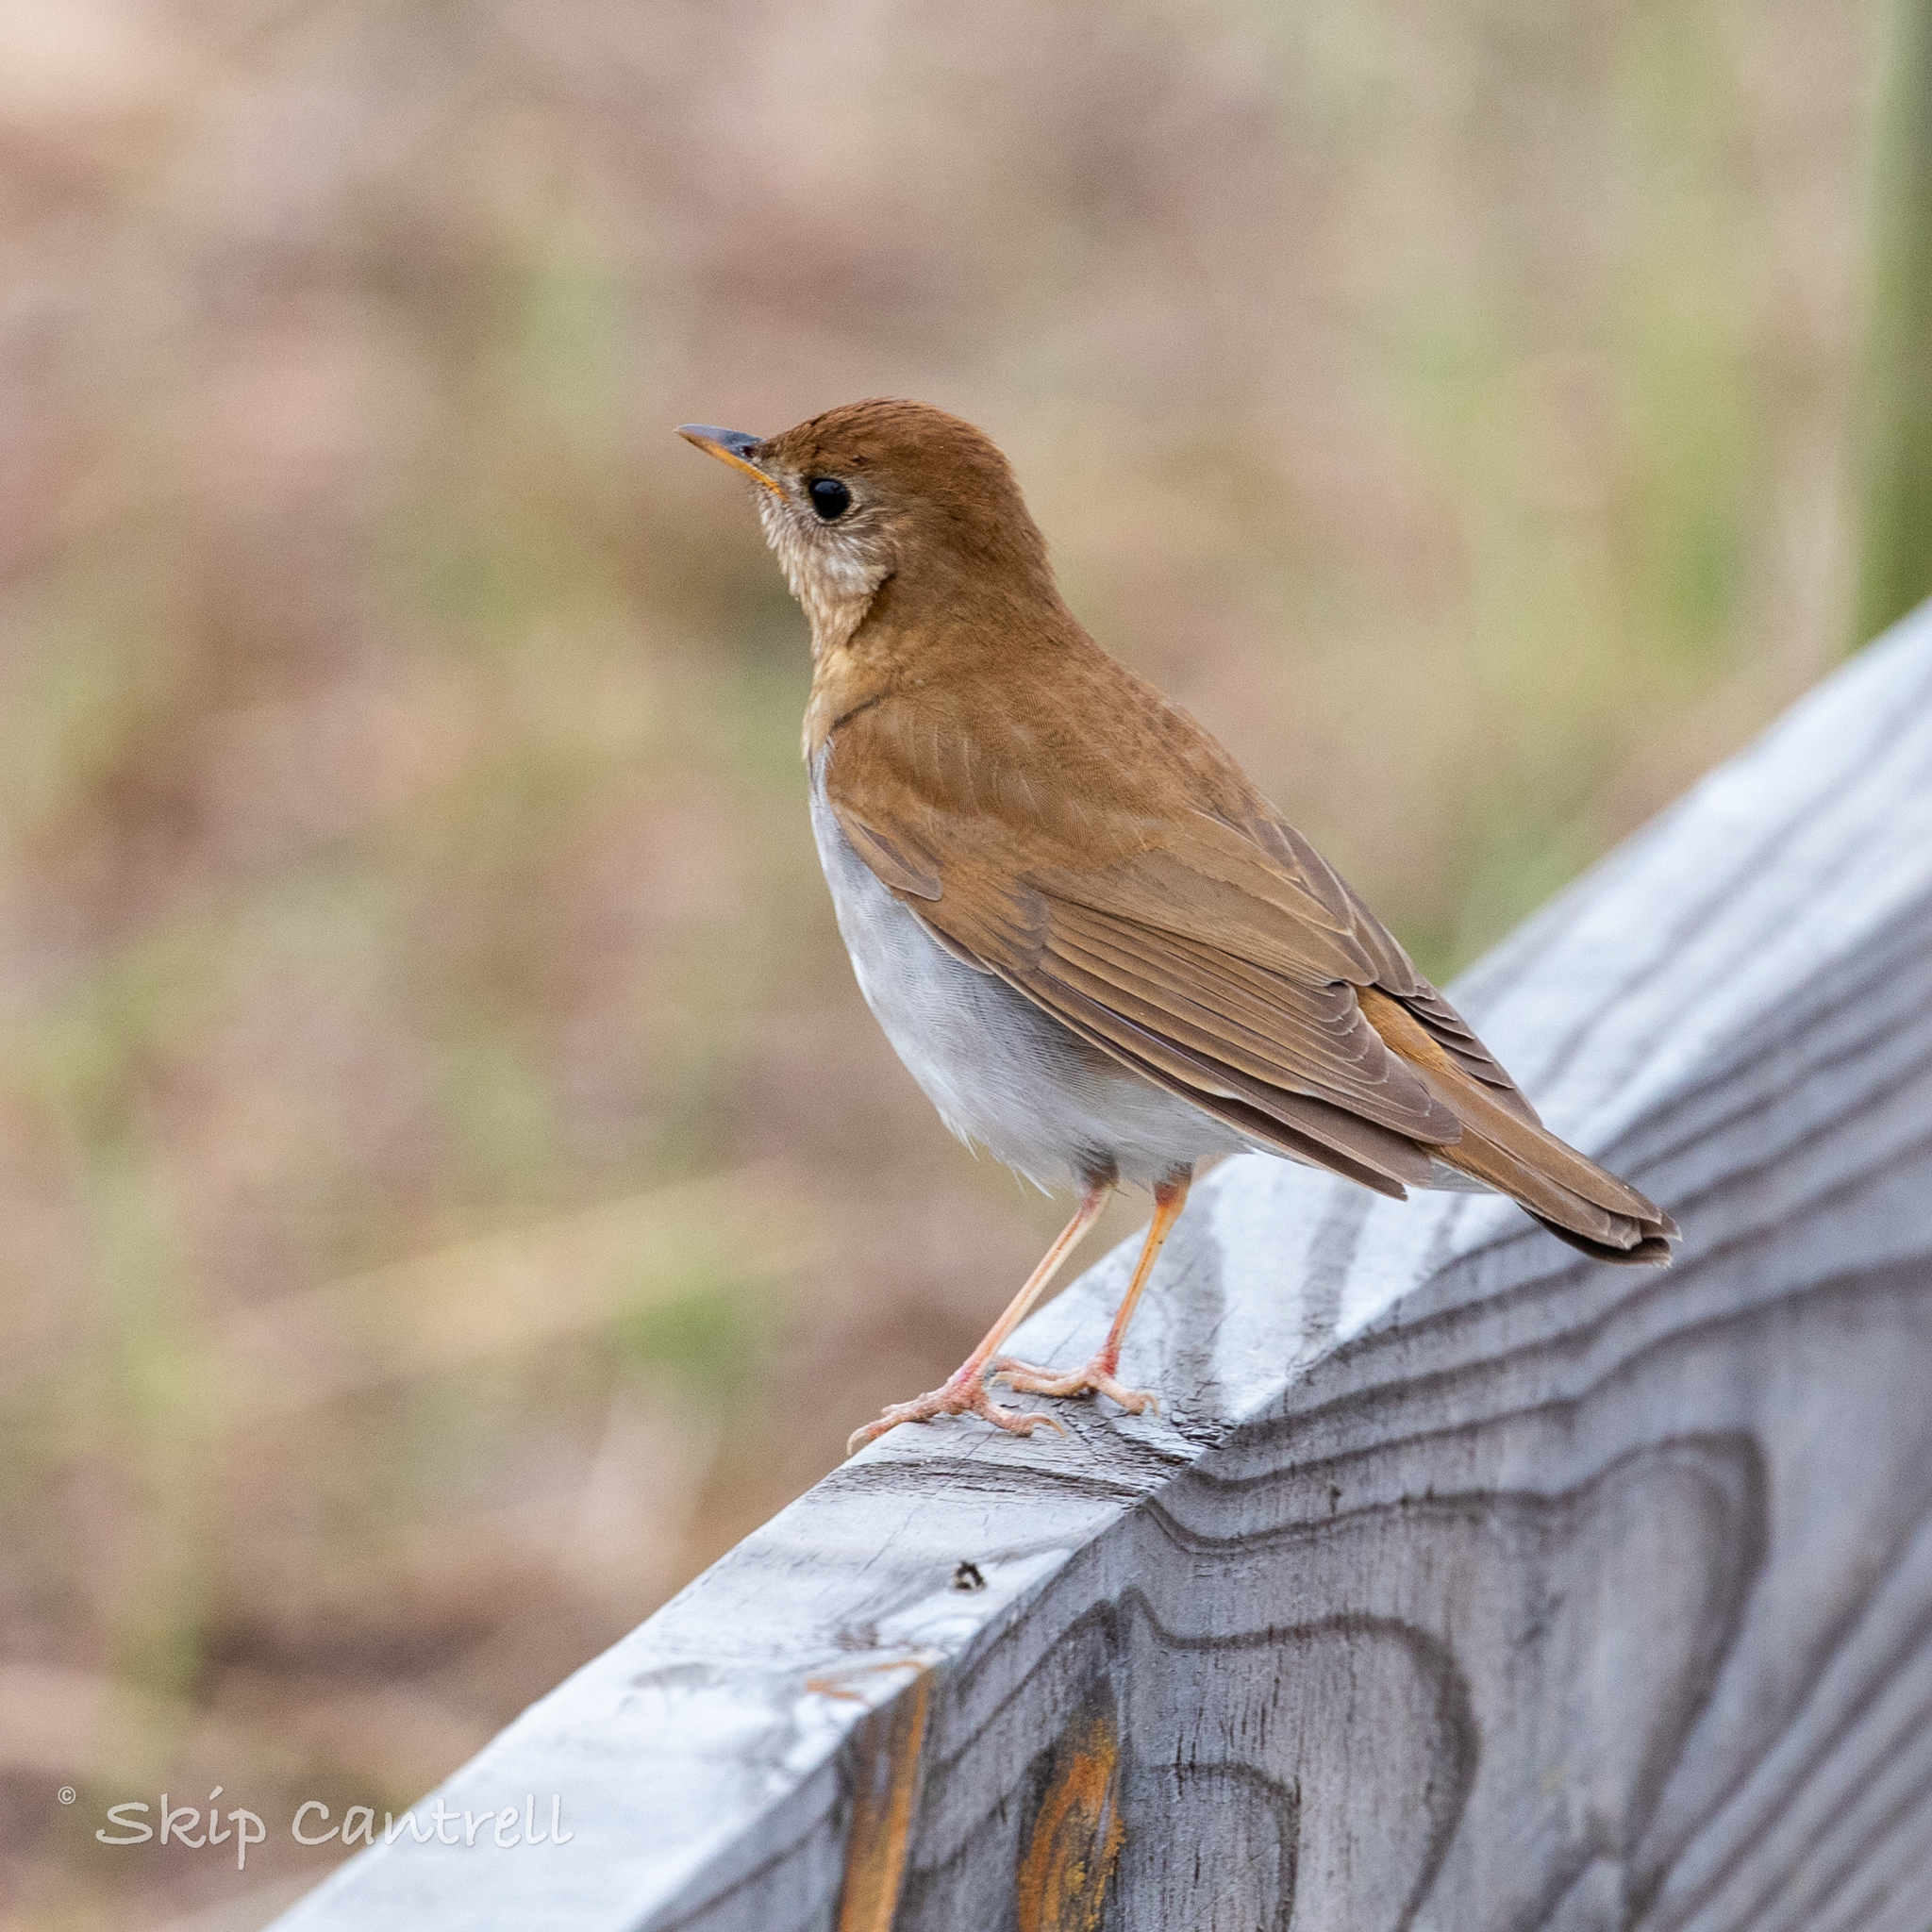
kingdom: Animalia
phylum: Chordata
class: Aves
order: Passeriformes
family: Turdidae
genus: Catharus
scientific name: Catharus fuscescens
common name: Veery
